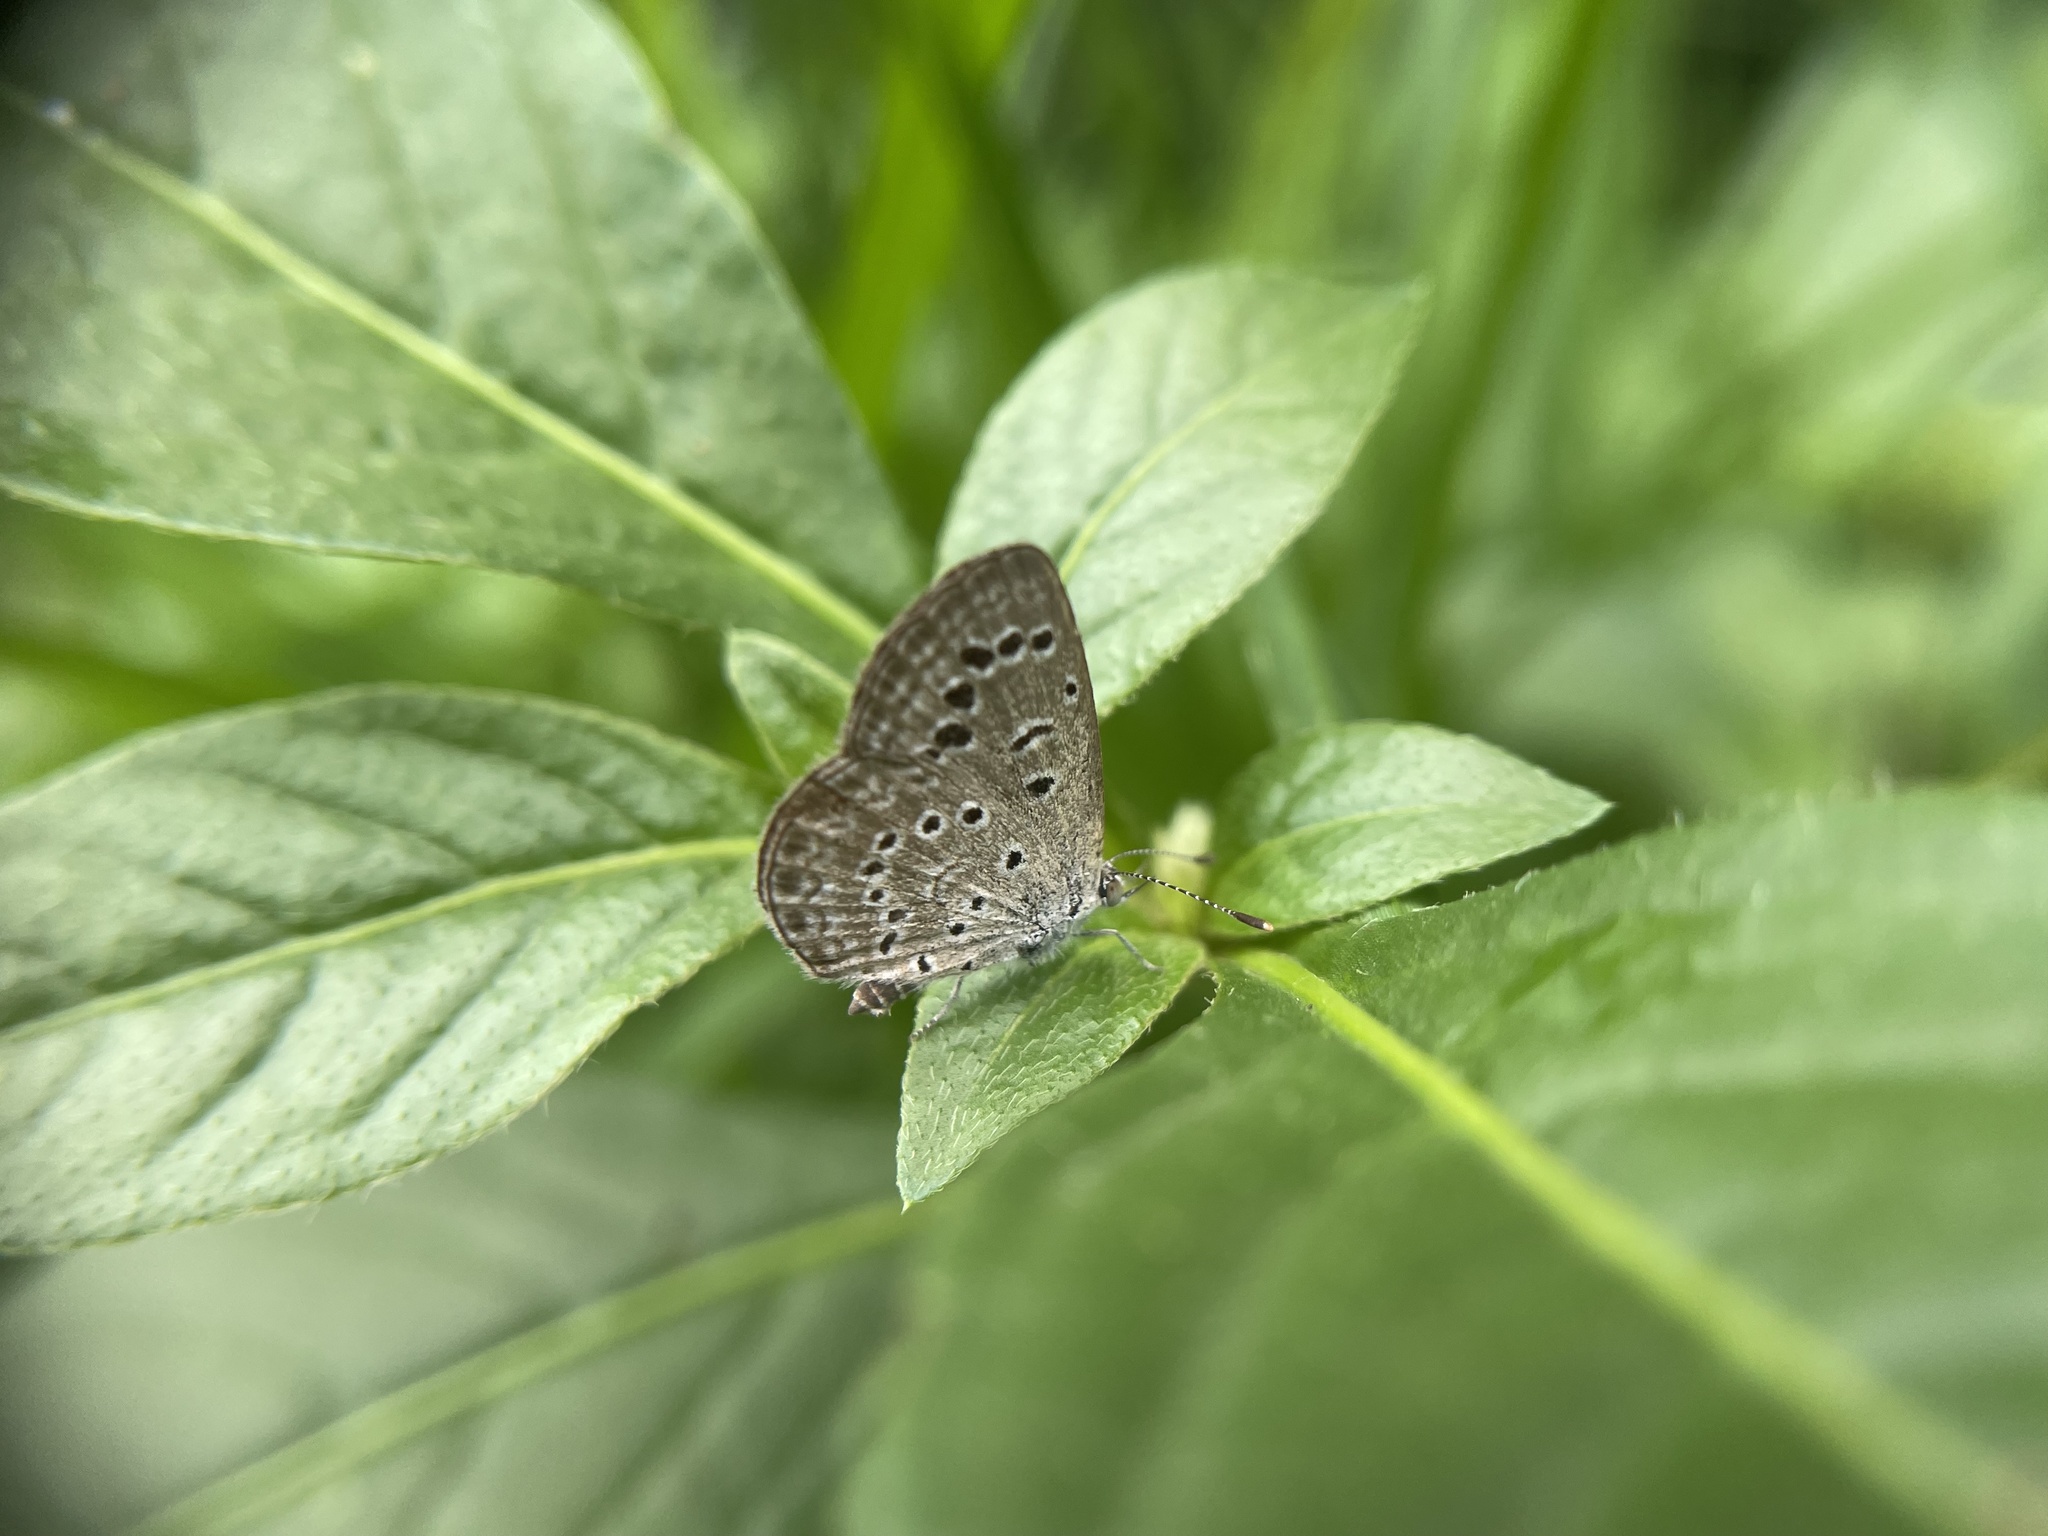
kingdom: Animalia
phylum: Arthropoda
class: Insecta
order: Lepidoptera
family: Lycaenidae
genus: Zizeeria
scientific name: Zizeeria karsandra
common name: Dark grass blue
